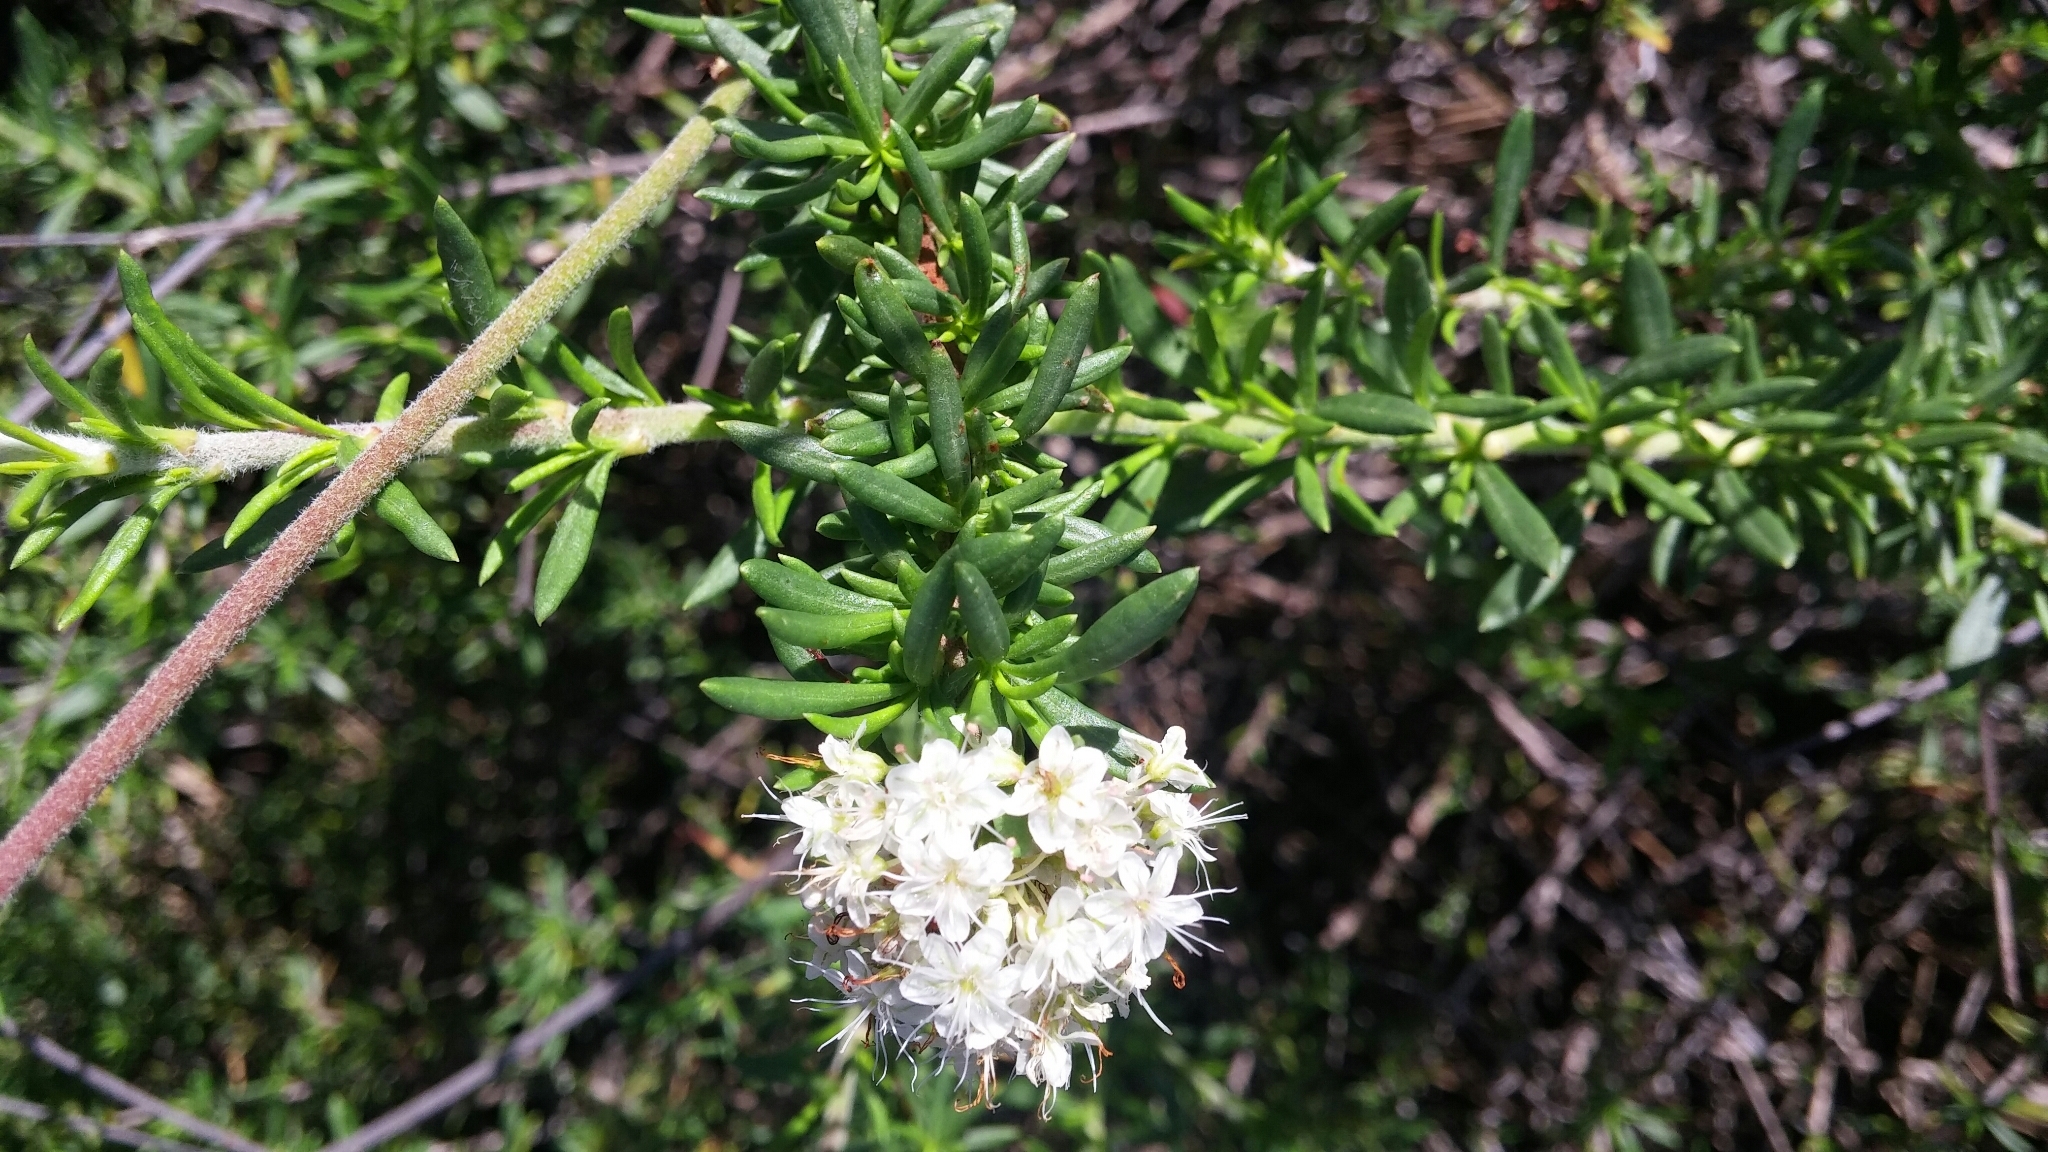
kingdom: Plantae
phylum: Tracheophyta
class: Magnoliopsida
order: Caryophyllales
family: Polygonaceae
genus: Eriogonum
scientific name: Eriogonum fasciculatum
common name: California wild buckwheat
